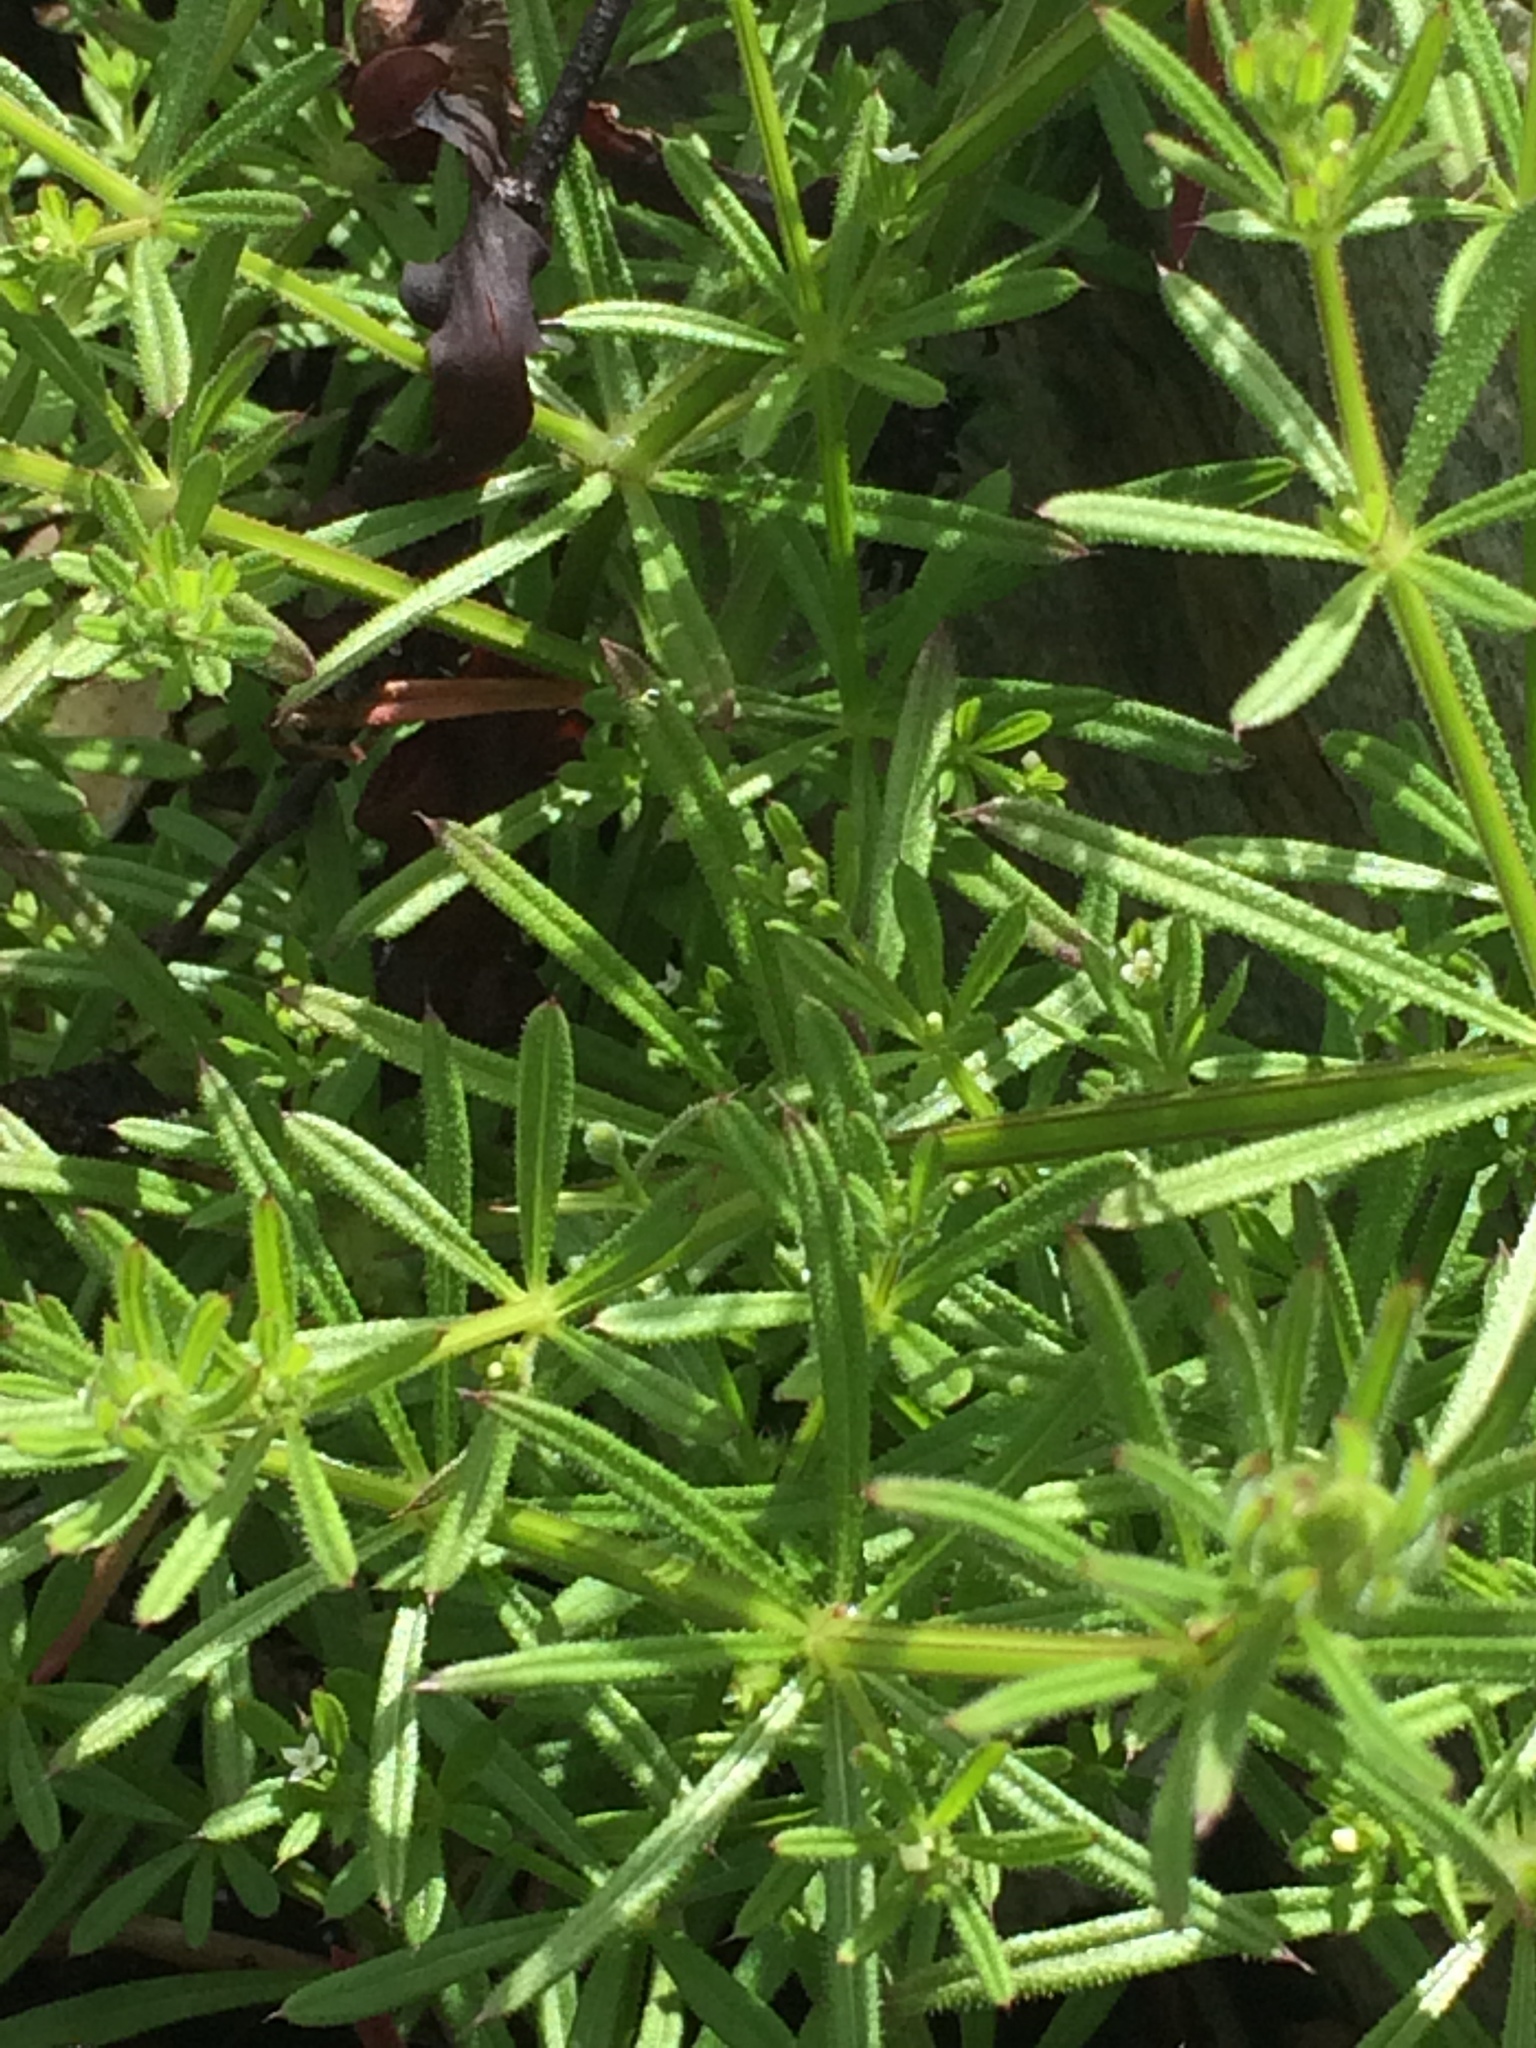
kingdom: Plantae
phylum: Tracheophyta
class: Magnoliopsida
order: Gentianales
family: Rubiaceae
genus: Galium
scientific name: Galium aparine
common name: Cleavers
